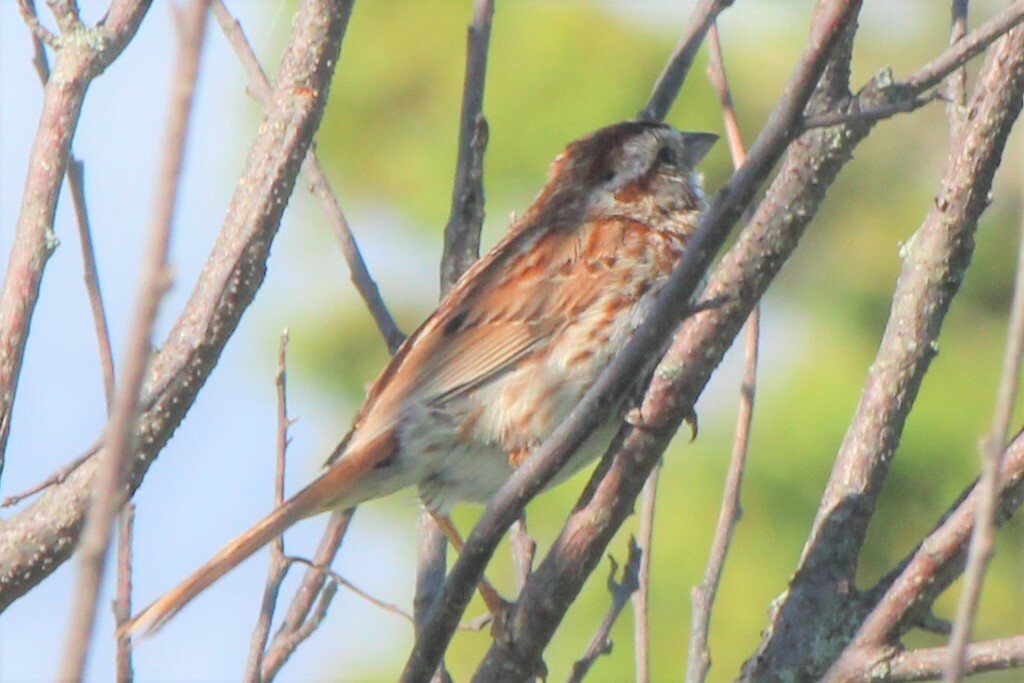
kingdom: Animalia
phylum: Chordata
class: Aves
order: Passeriformes
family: Passerellidae
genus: Melospiza
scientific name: Melospiza melodia
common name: Song sparrow
